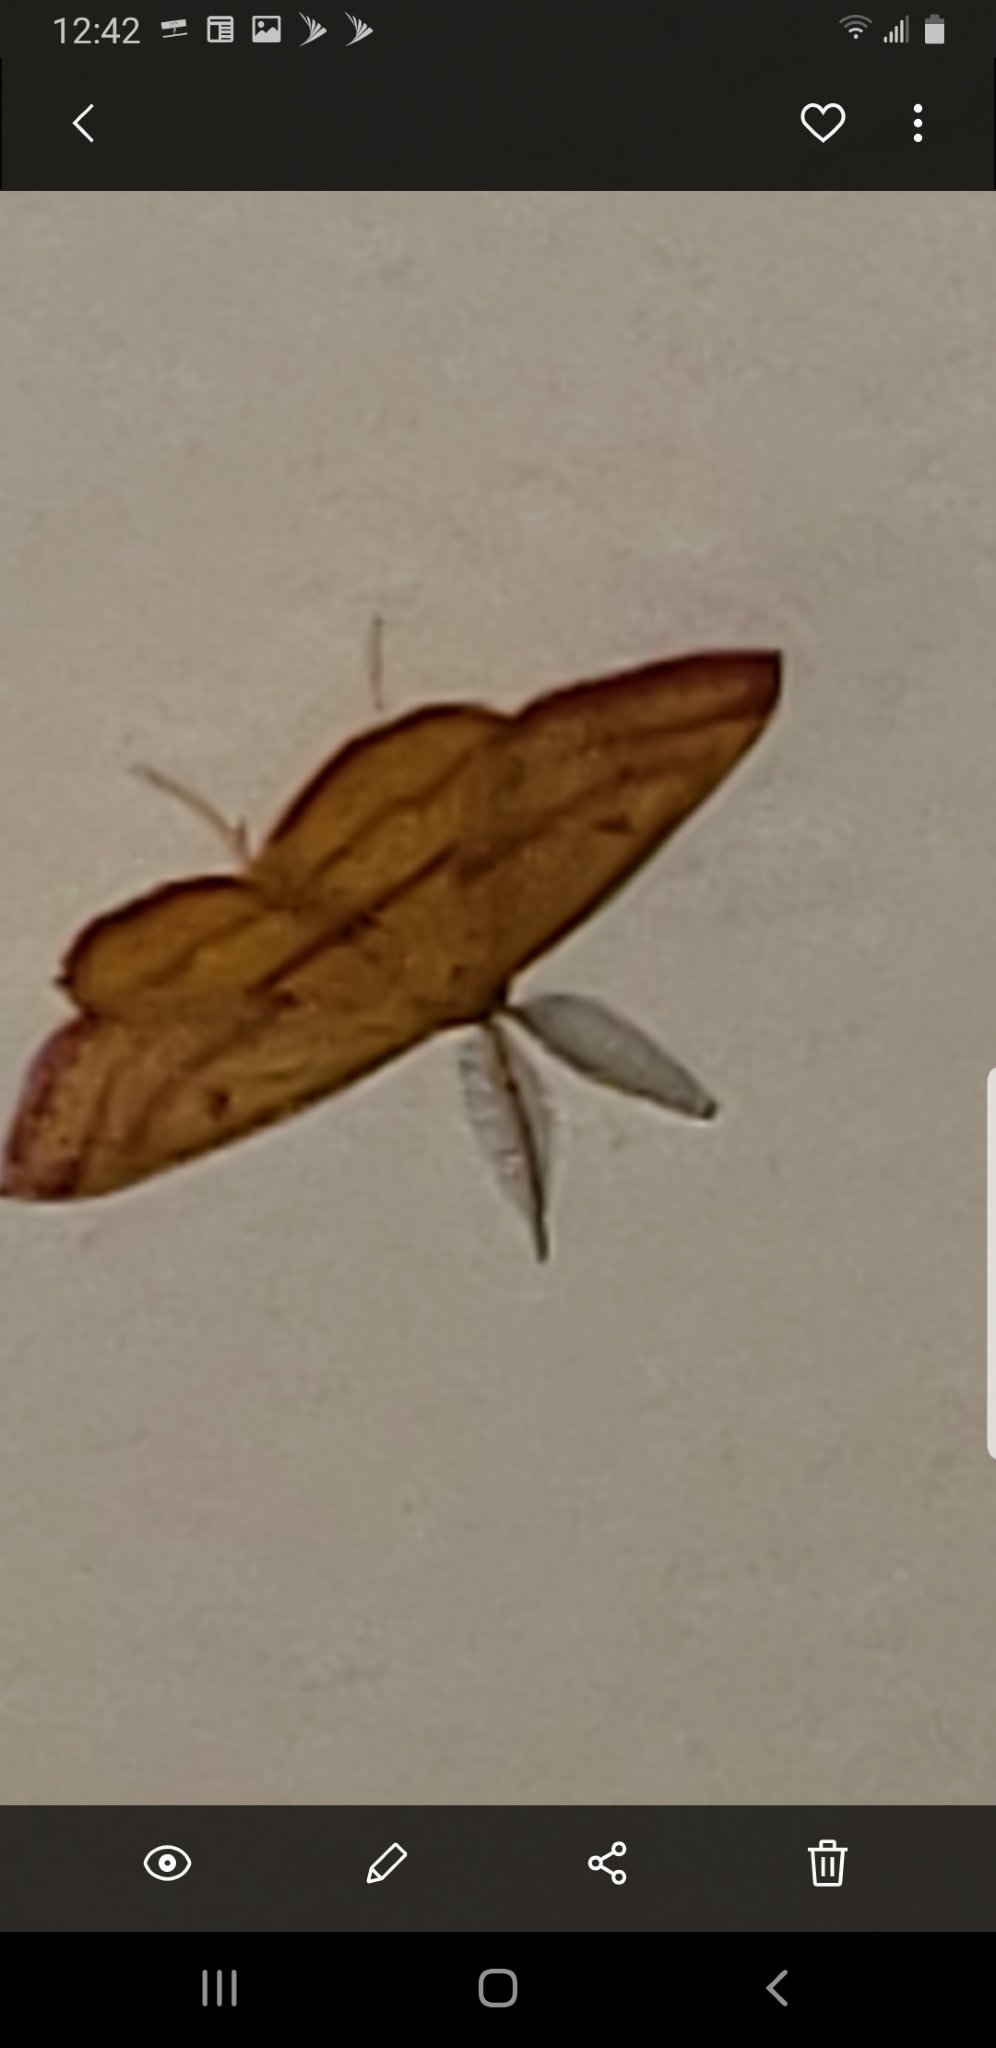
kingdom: Animalia
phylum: Arthropoda
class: Insecta
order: Lepidoptera
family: Geometridae
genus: Haematopis
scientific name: Haematopis grataria
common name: Chickweed geometer
